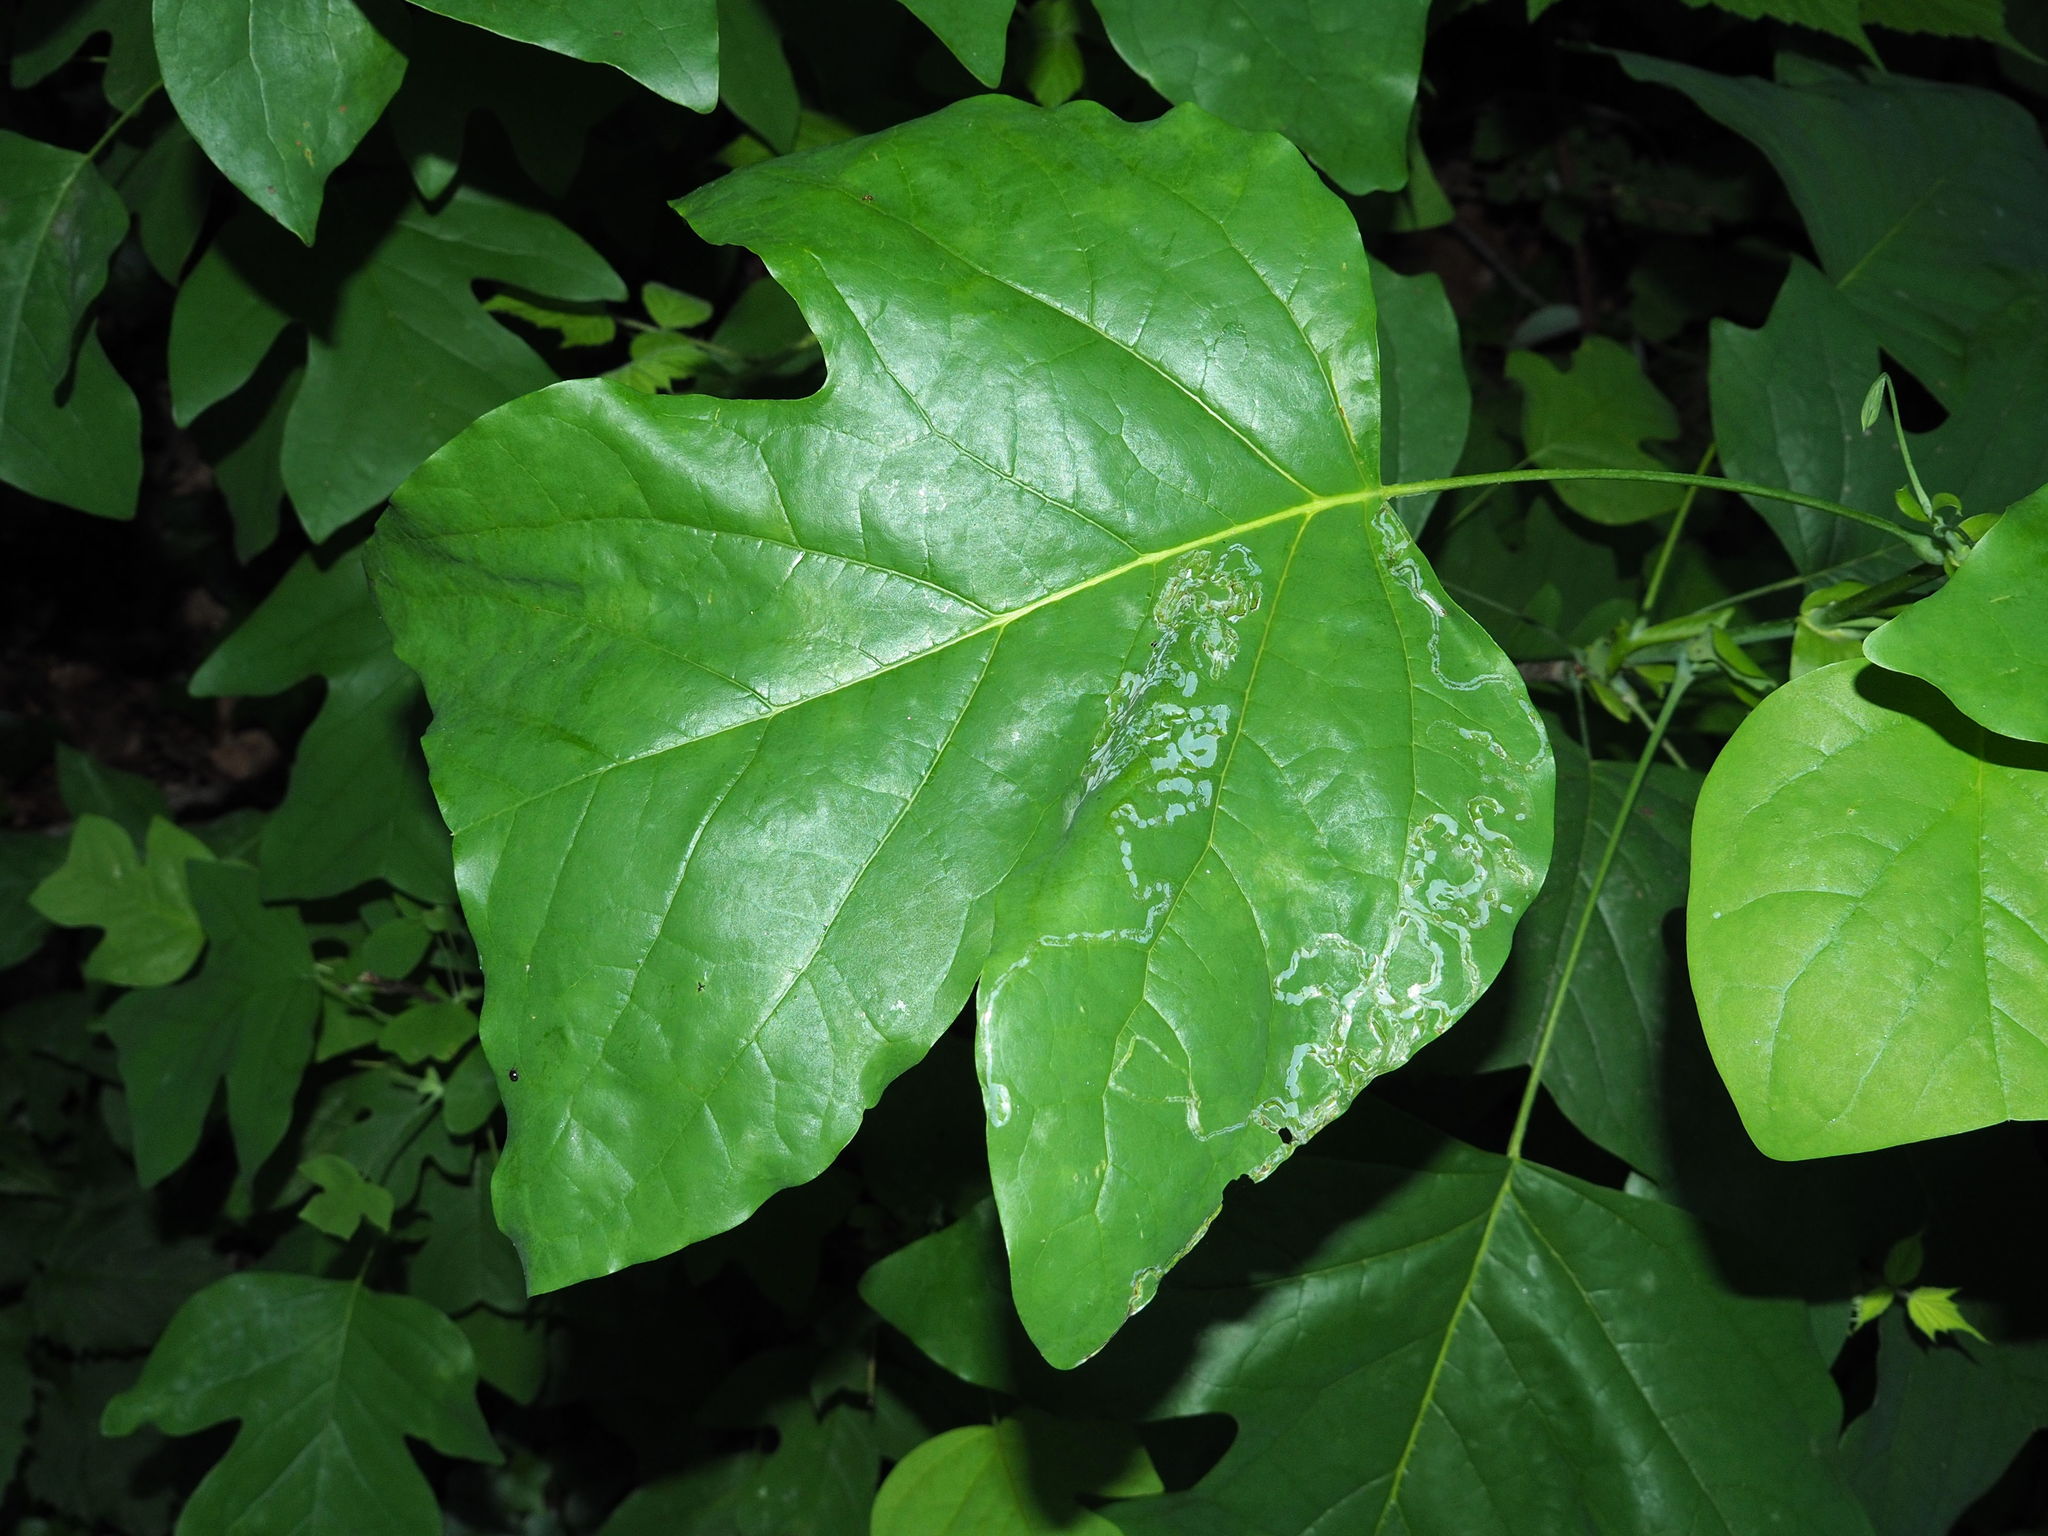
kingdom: Plantae
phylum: Tracheophyta
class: Magnoliopsida
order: Magnoliales
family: Magnoliaceae
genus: Liriodendron
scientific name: Liriodendron tulipifera
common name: Tulip tree
